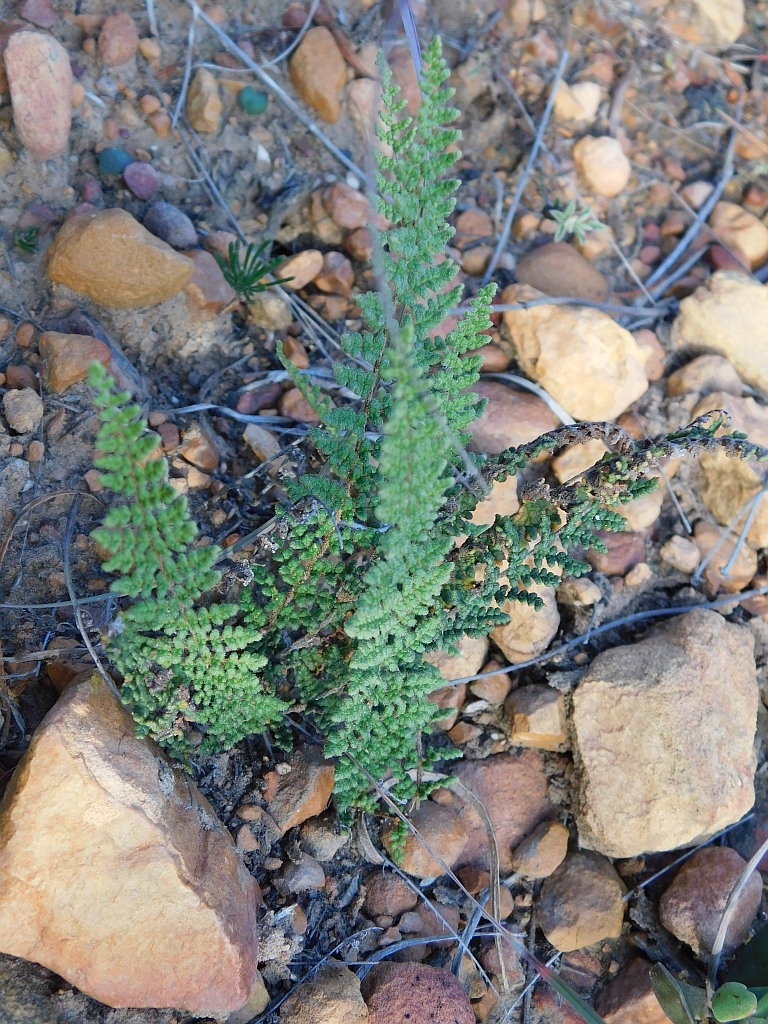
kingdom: Plantae
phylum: Tracheophyta
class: Polypodiopsida
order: Polypodiales
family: Pteridaceae
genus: Cheilanthes
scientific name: Cheilanthes contracta
